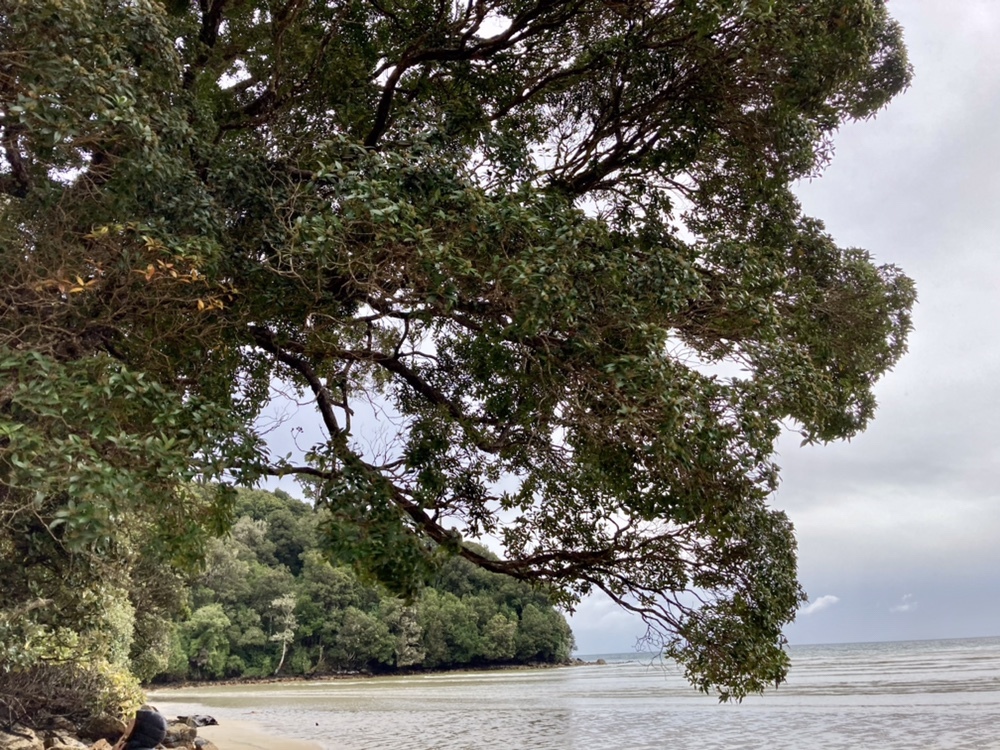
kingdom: Plantae
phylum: Tracheophyta
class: Magnoliopsida
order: Myrtales
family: Myrtaceae
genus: Metrosideros
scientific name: Metrosideros umbellata
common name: Southern rata
